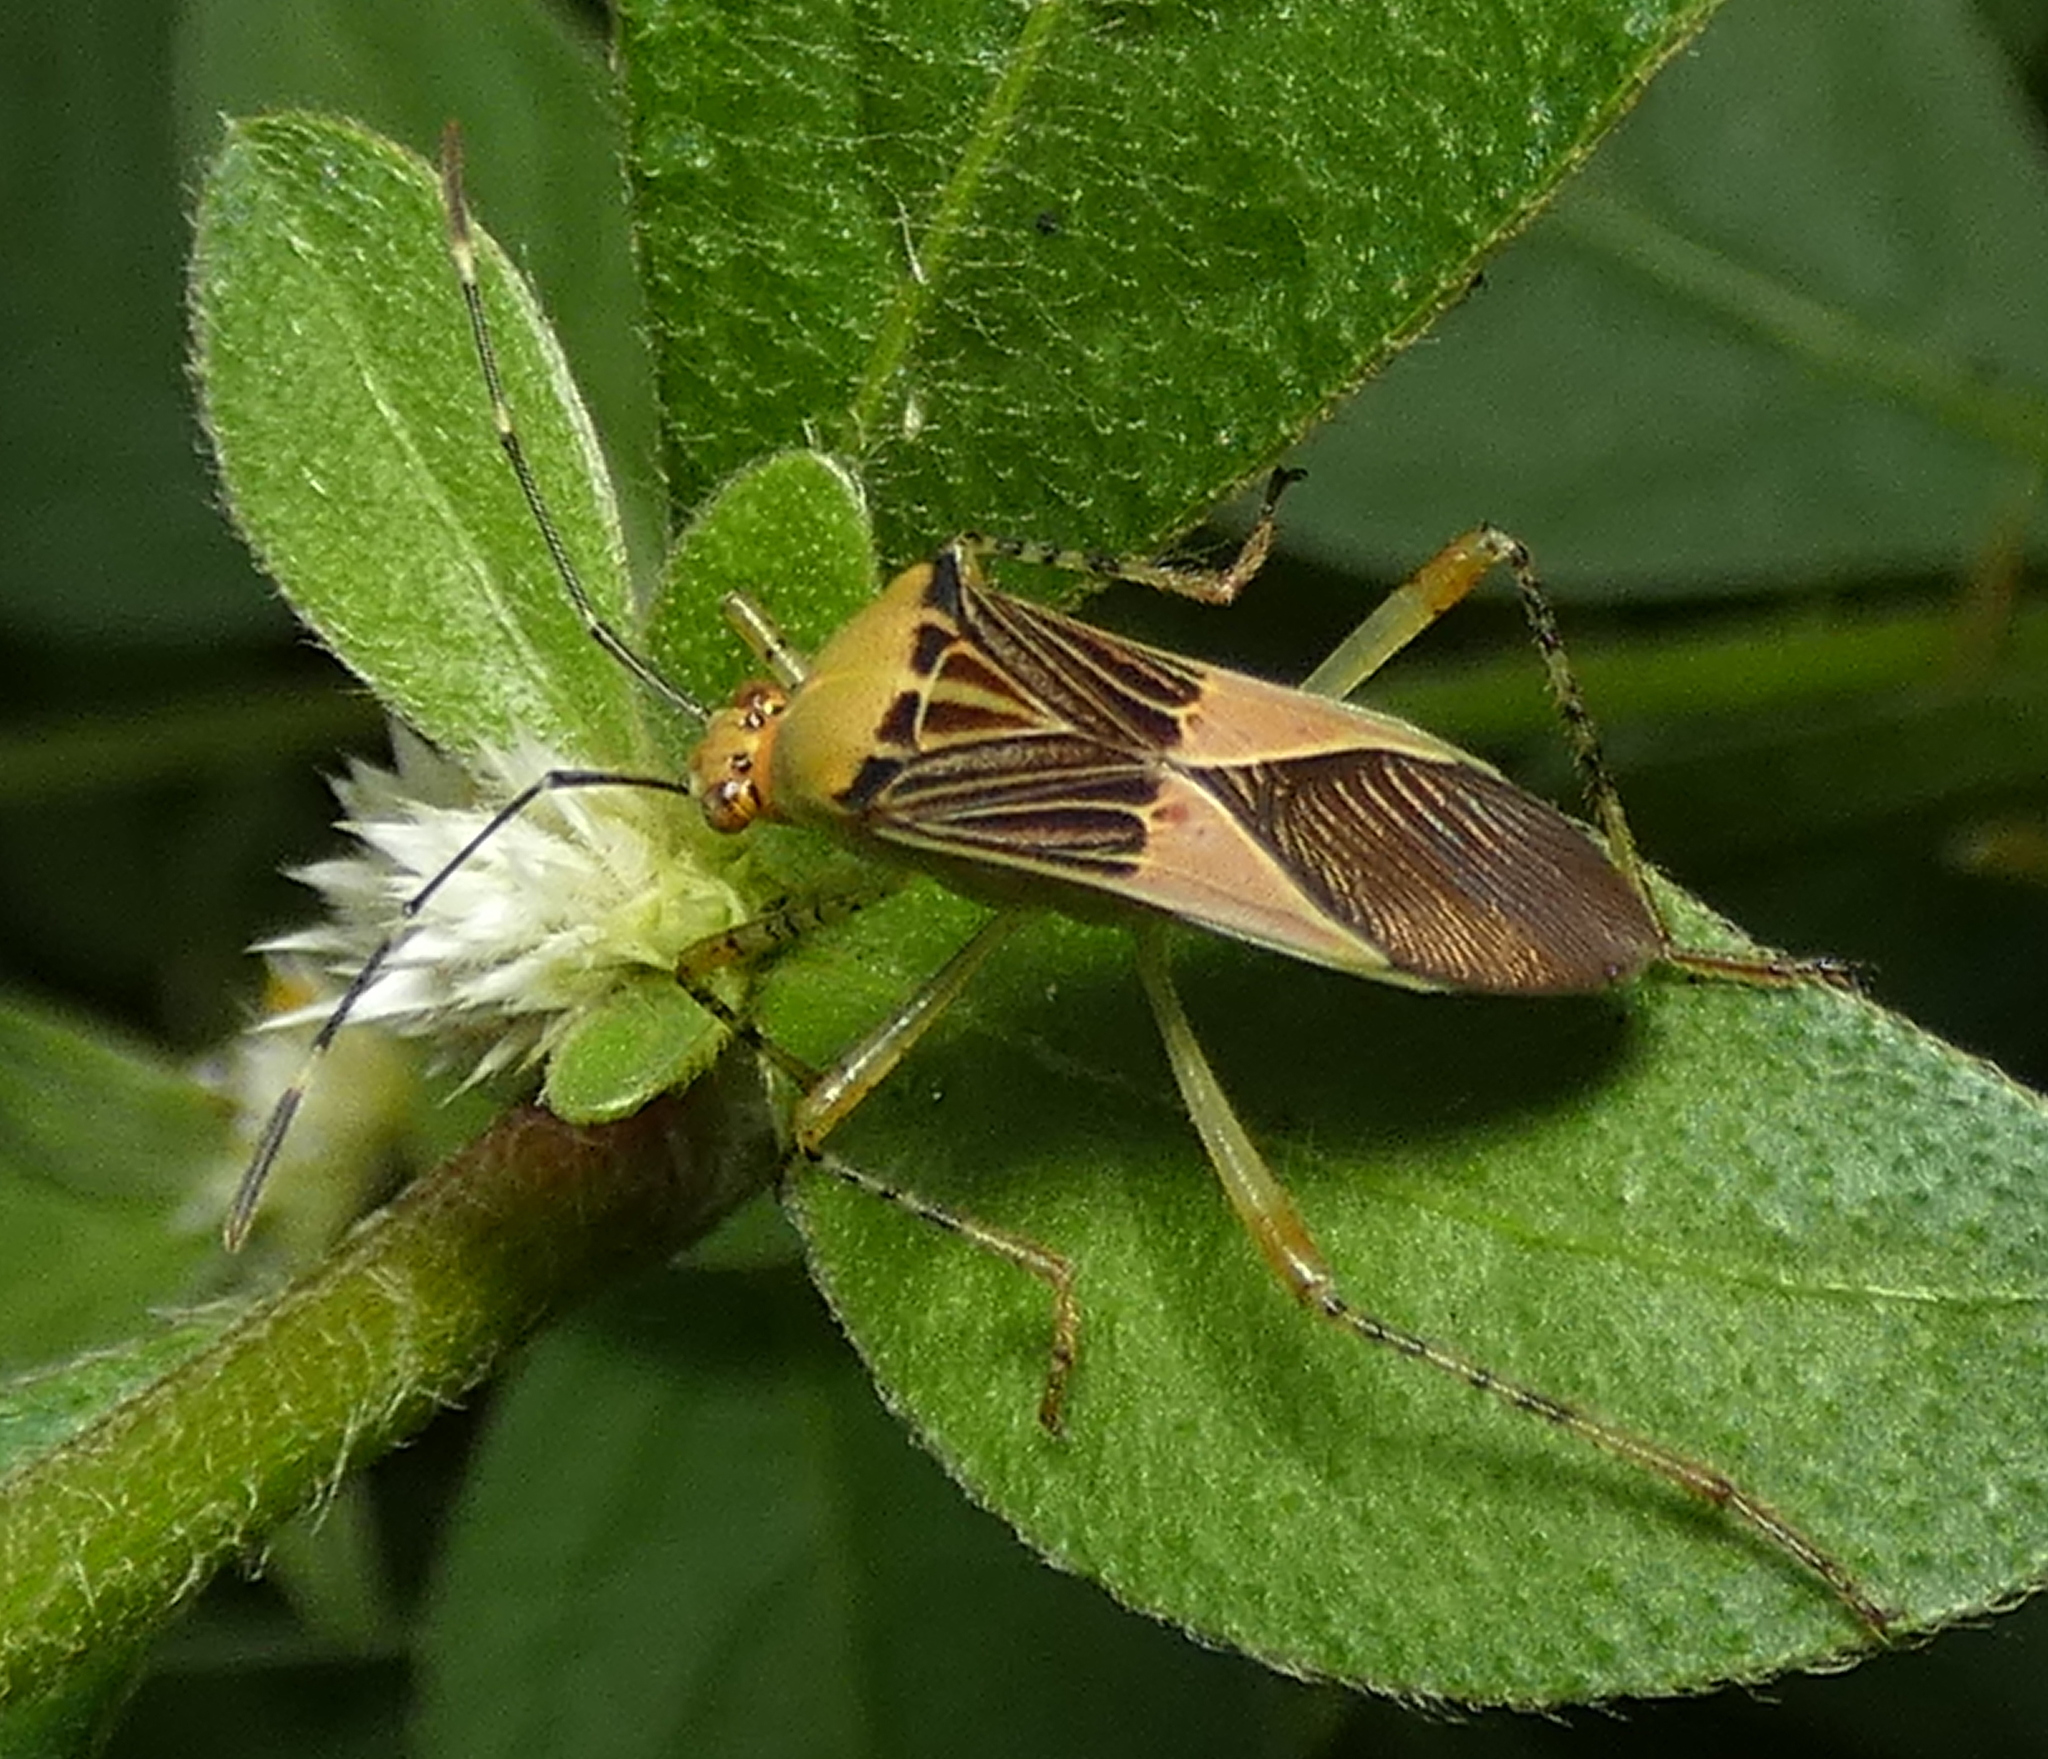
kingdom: Animalia
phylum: Arthropoda
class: Insecta
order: Hemiptera
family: Coreidae
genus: Hypselonotus
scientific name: Hypselonotus fulvus
